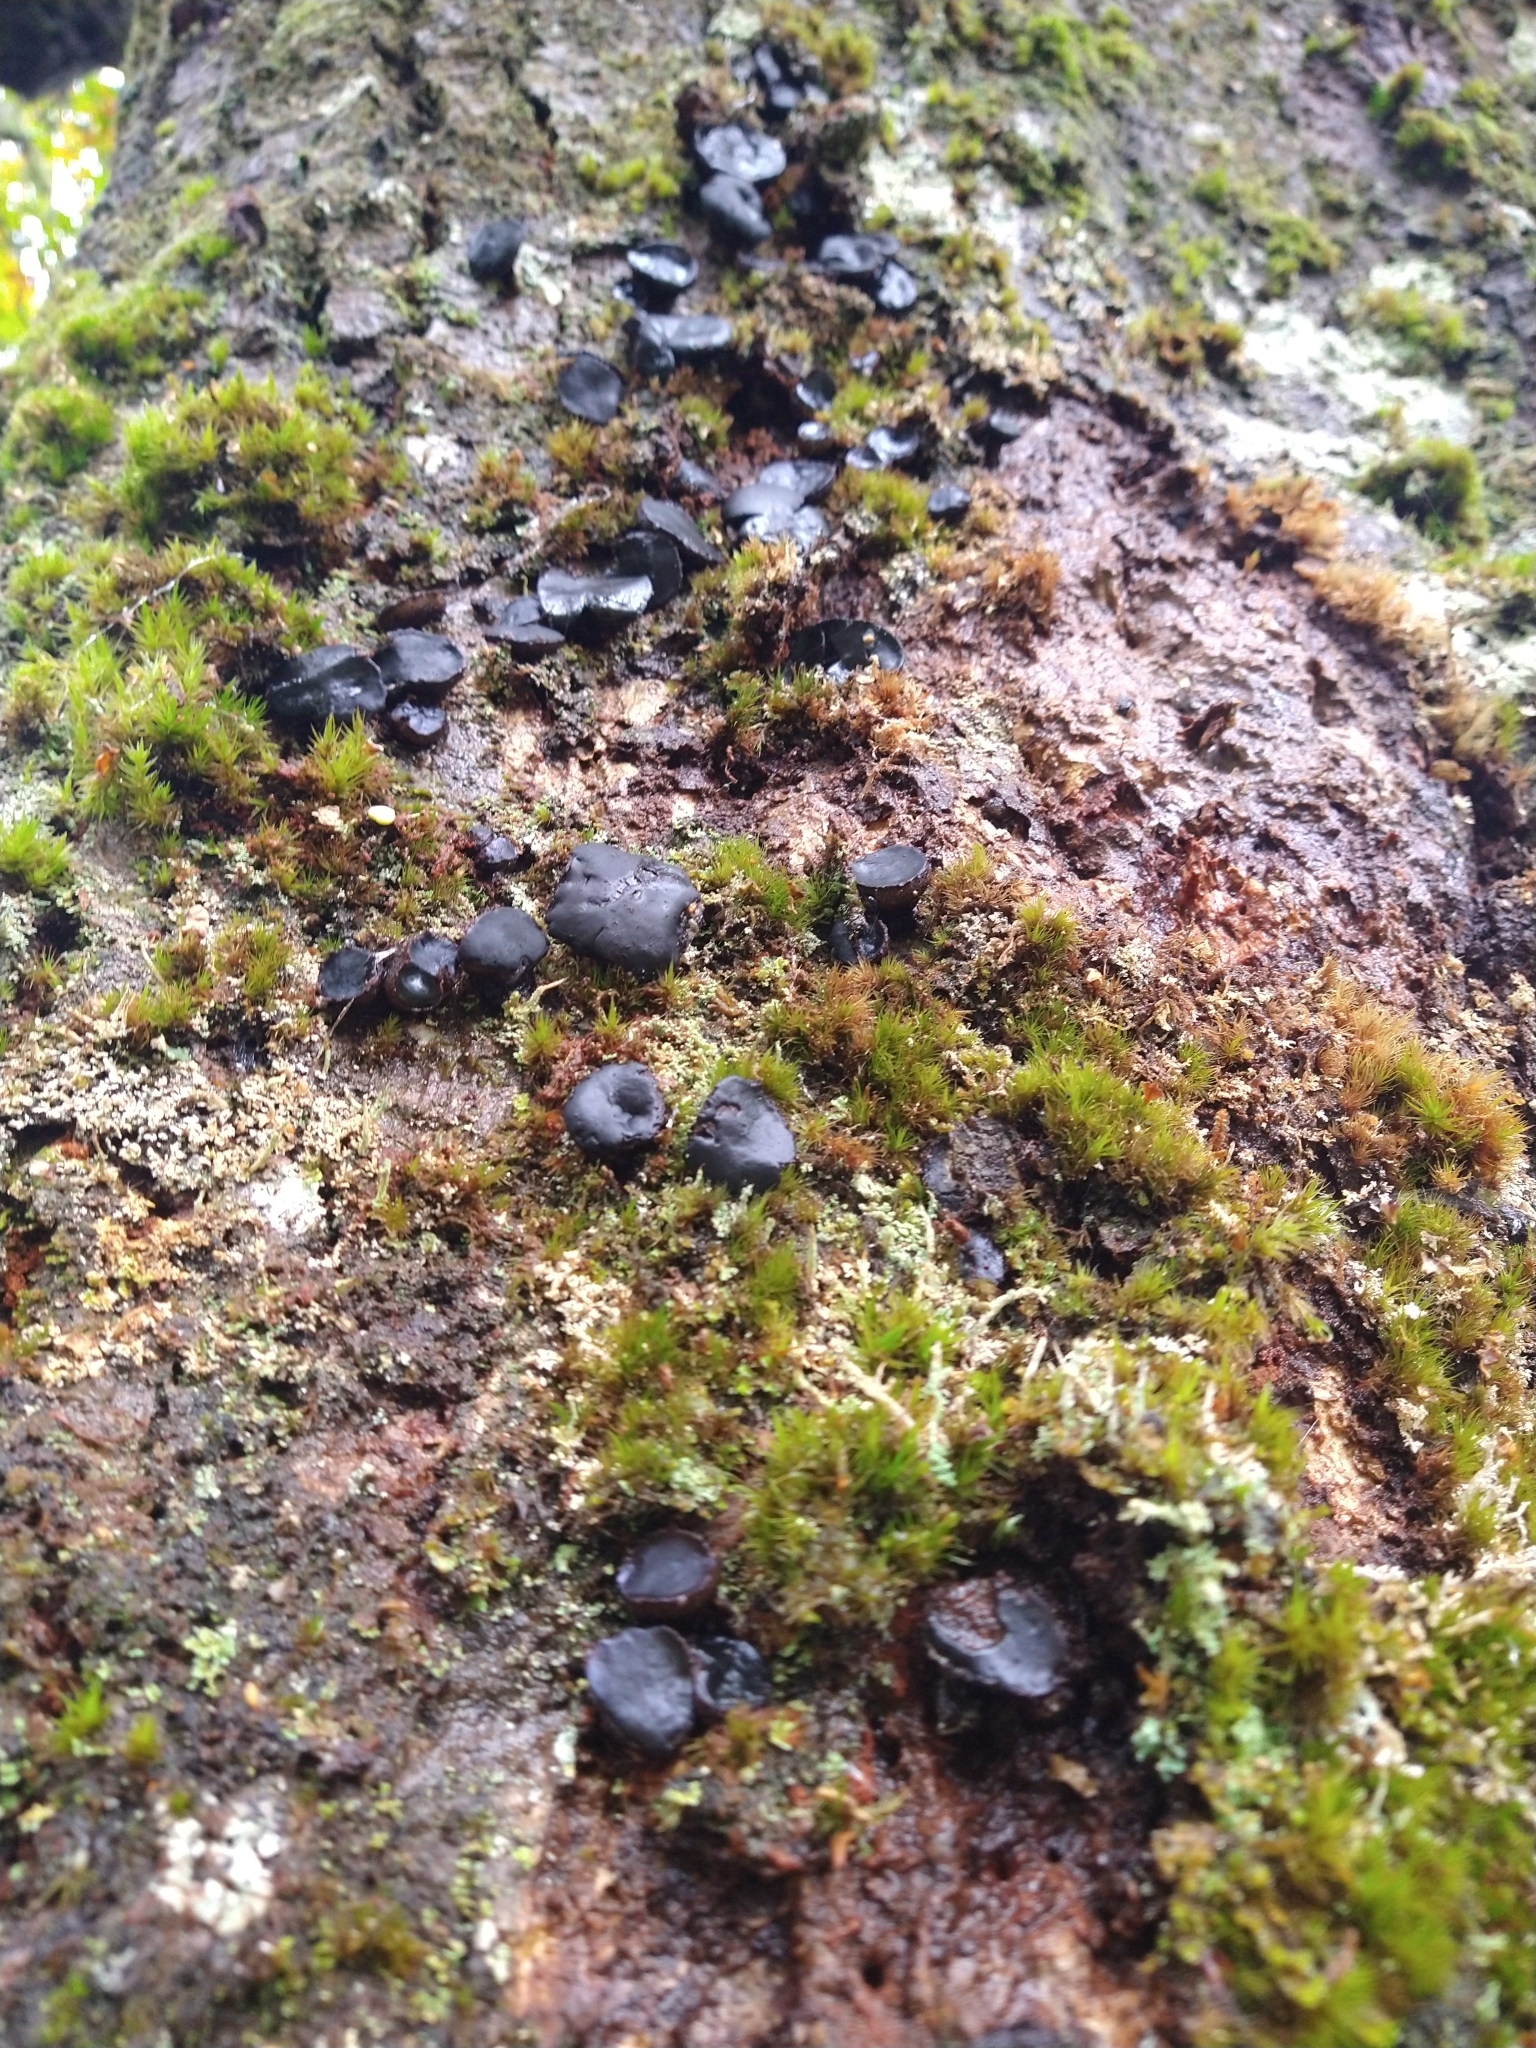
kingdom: Fungi
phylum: Ascomycota
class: Leotiomycetes
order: Phacidiales
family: Phacidiaceae
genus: Bulgaria
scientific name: Bulgaria inquinans
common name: Black bulgar
